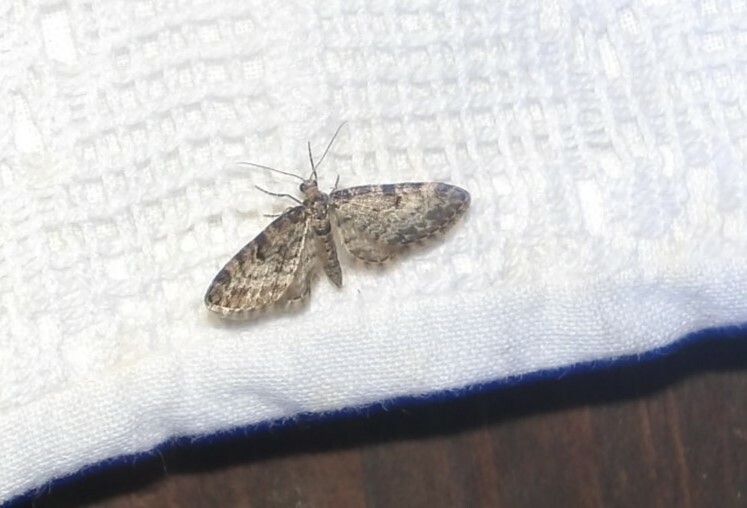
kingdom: Animalia
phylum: Arthropoda
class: Insecta
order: Lepidoptera
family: Geometridae
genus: Eupithecia
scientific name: Eupithecia tantillaria
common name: Dwarf pug
